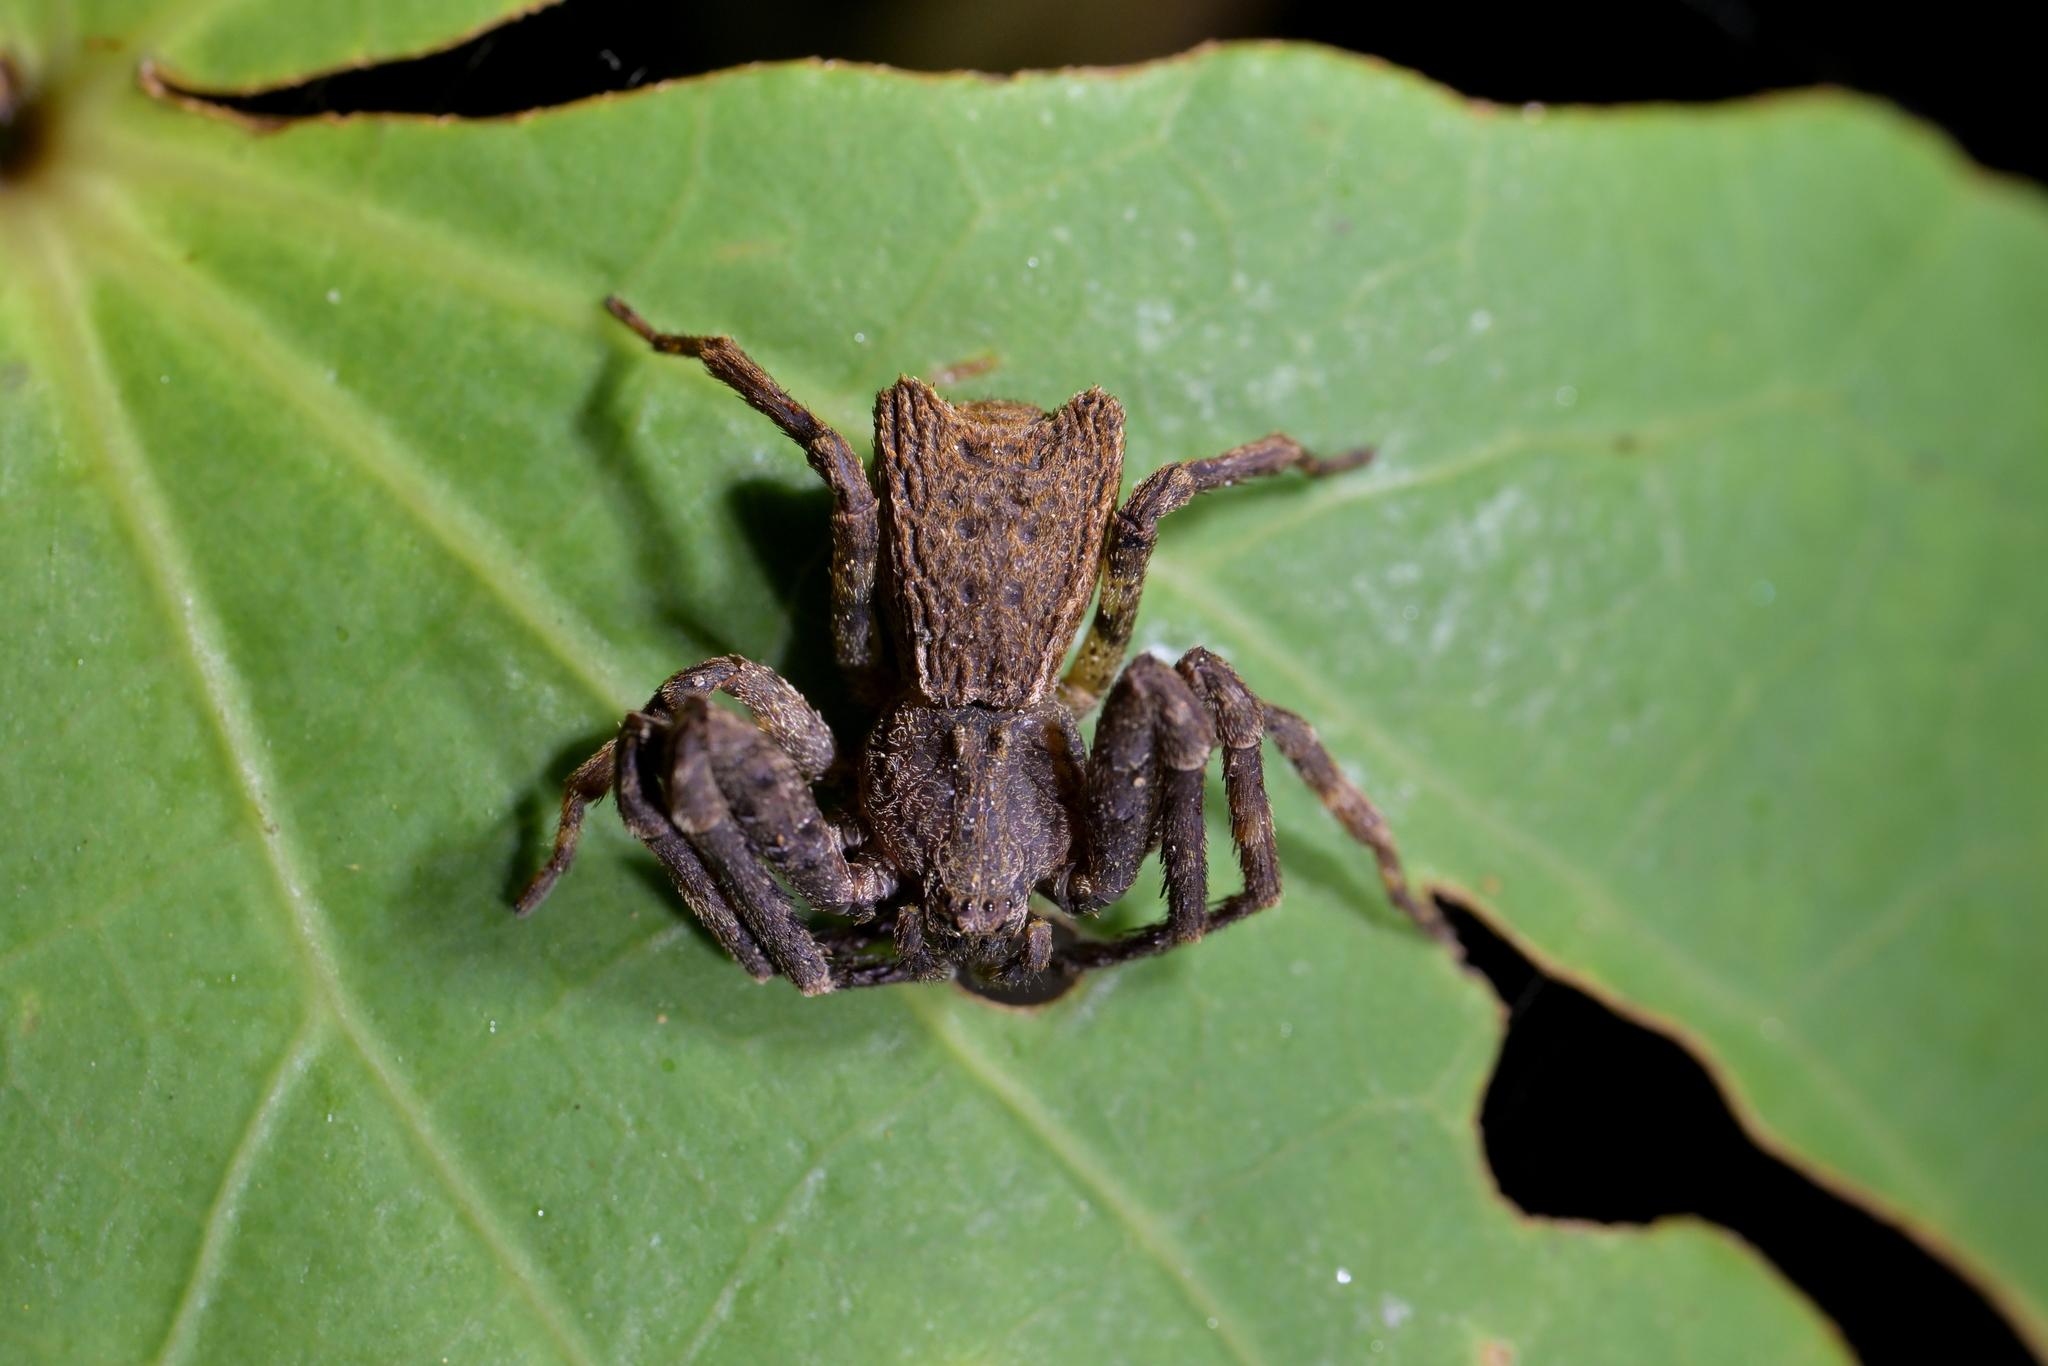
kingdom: Animalia
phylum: Arthropoda
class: Arachnida
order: Araneae
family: Thomisidae
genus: Sidymella
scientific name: Sidymella angularis
